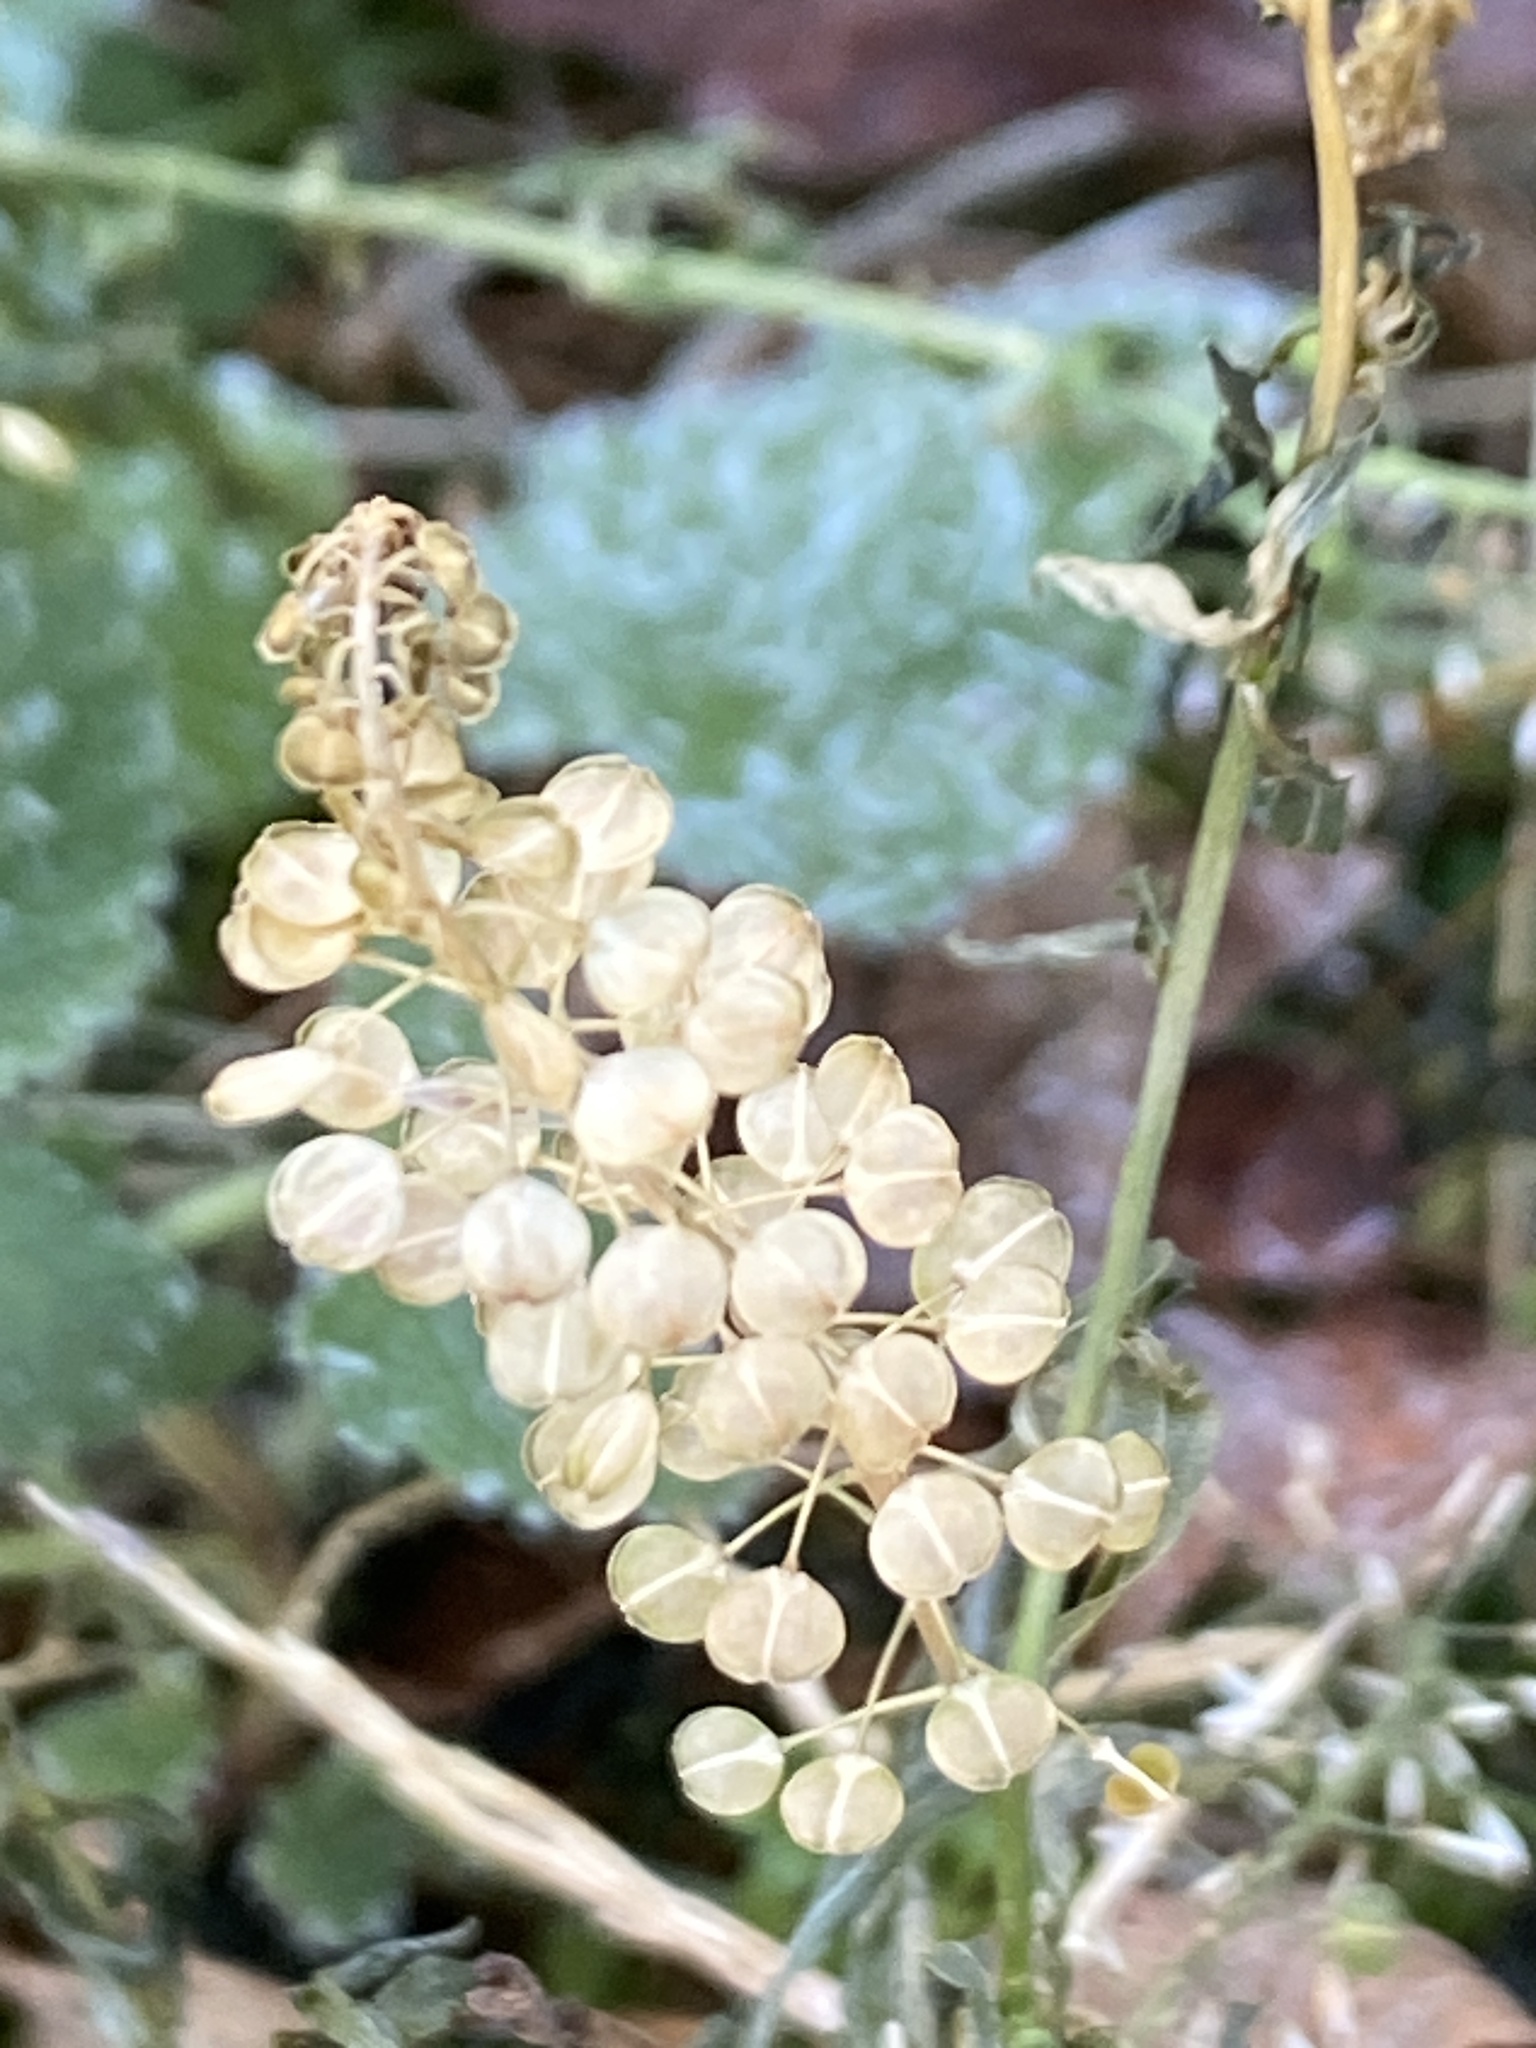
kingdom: Plantae
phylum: Tracheophyta
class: Magnoliopsida
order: Brassicales
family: Brassicaceae
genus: Lepidium
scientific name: Lepidium virginicum
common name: Least pepperwort
